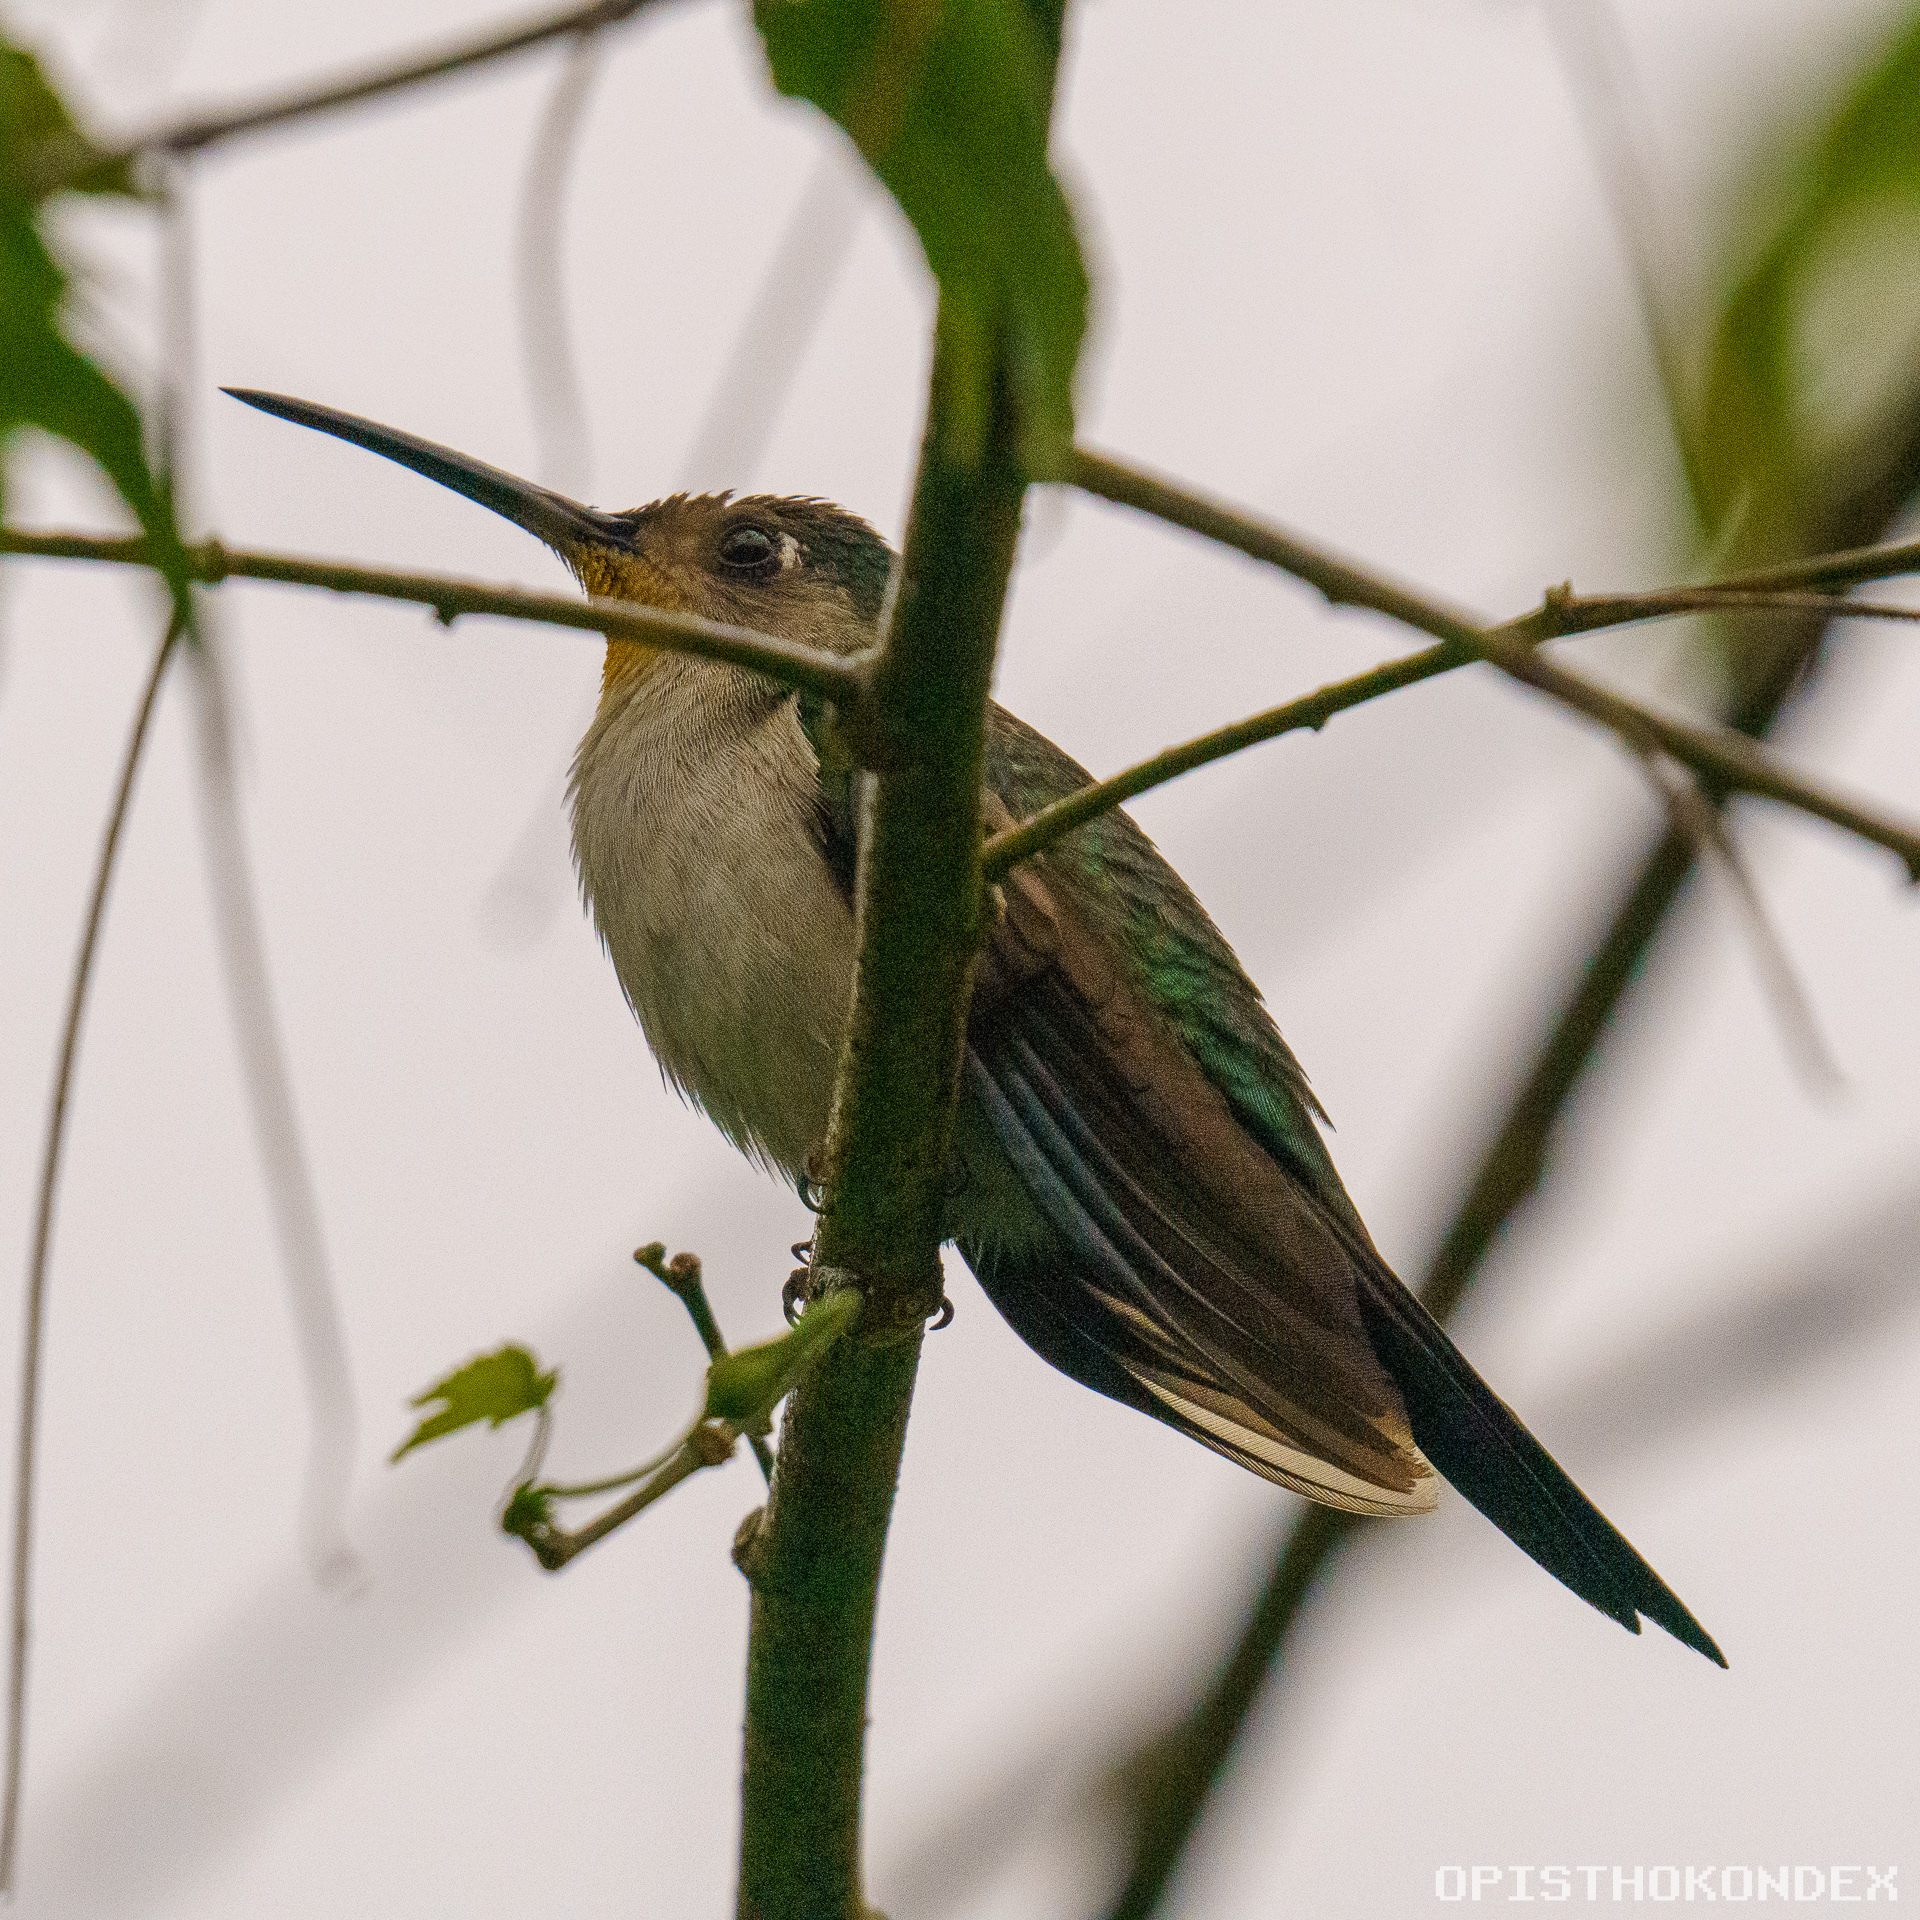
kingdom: Animalia
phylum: Chordata
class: Aves
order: Apodiformes
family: Trochilidae
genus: Pampa
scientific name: Pampa curvipennis
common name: Curve-winged sabrewing
